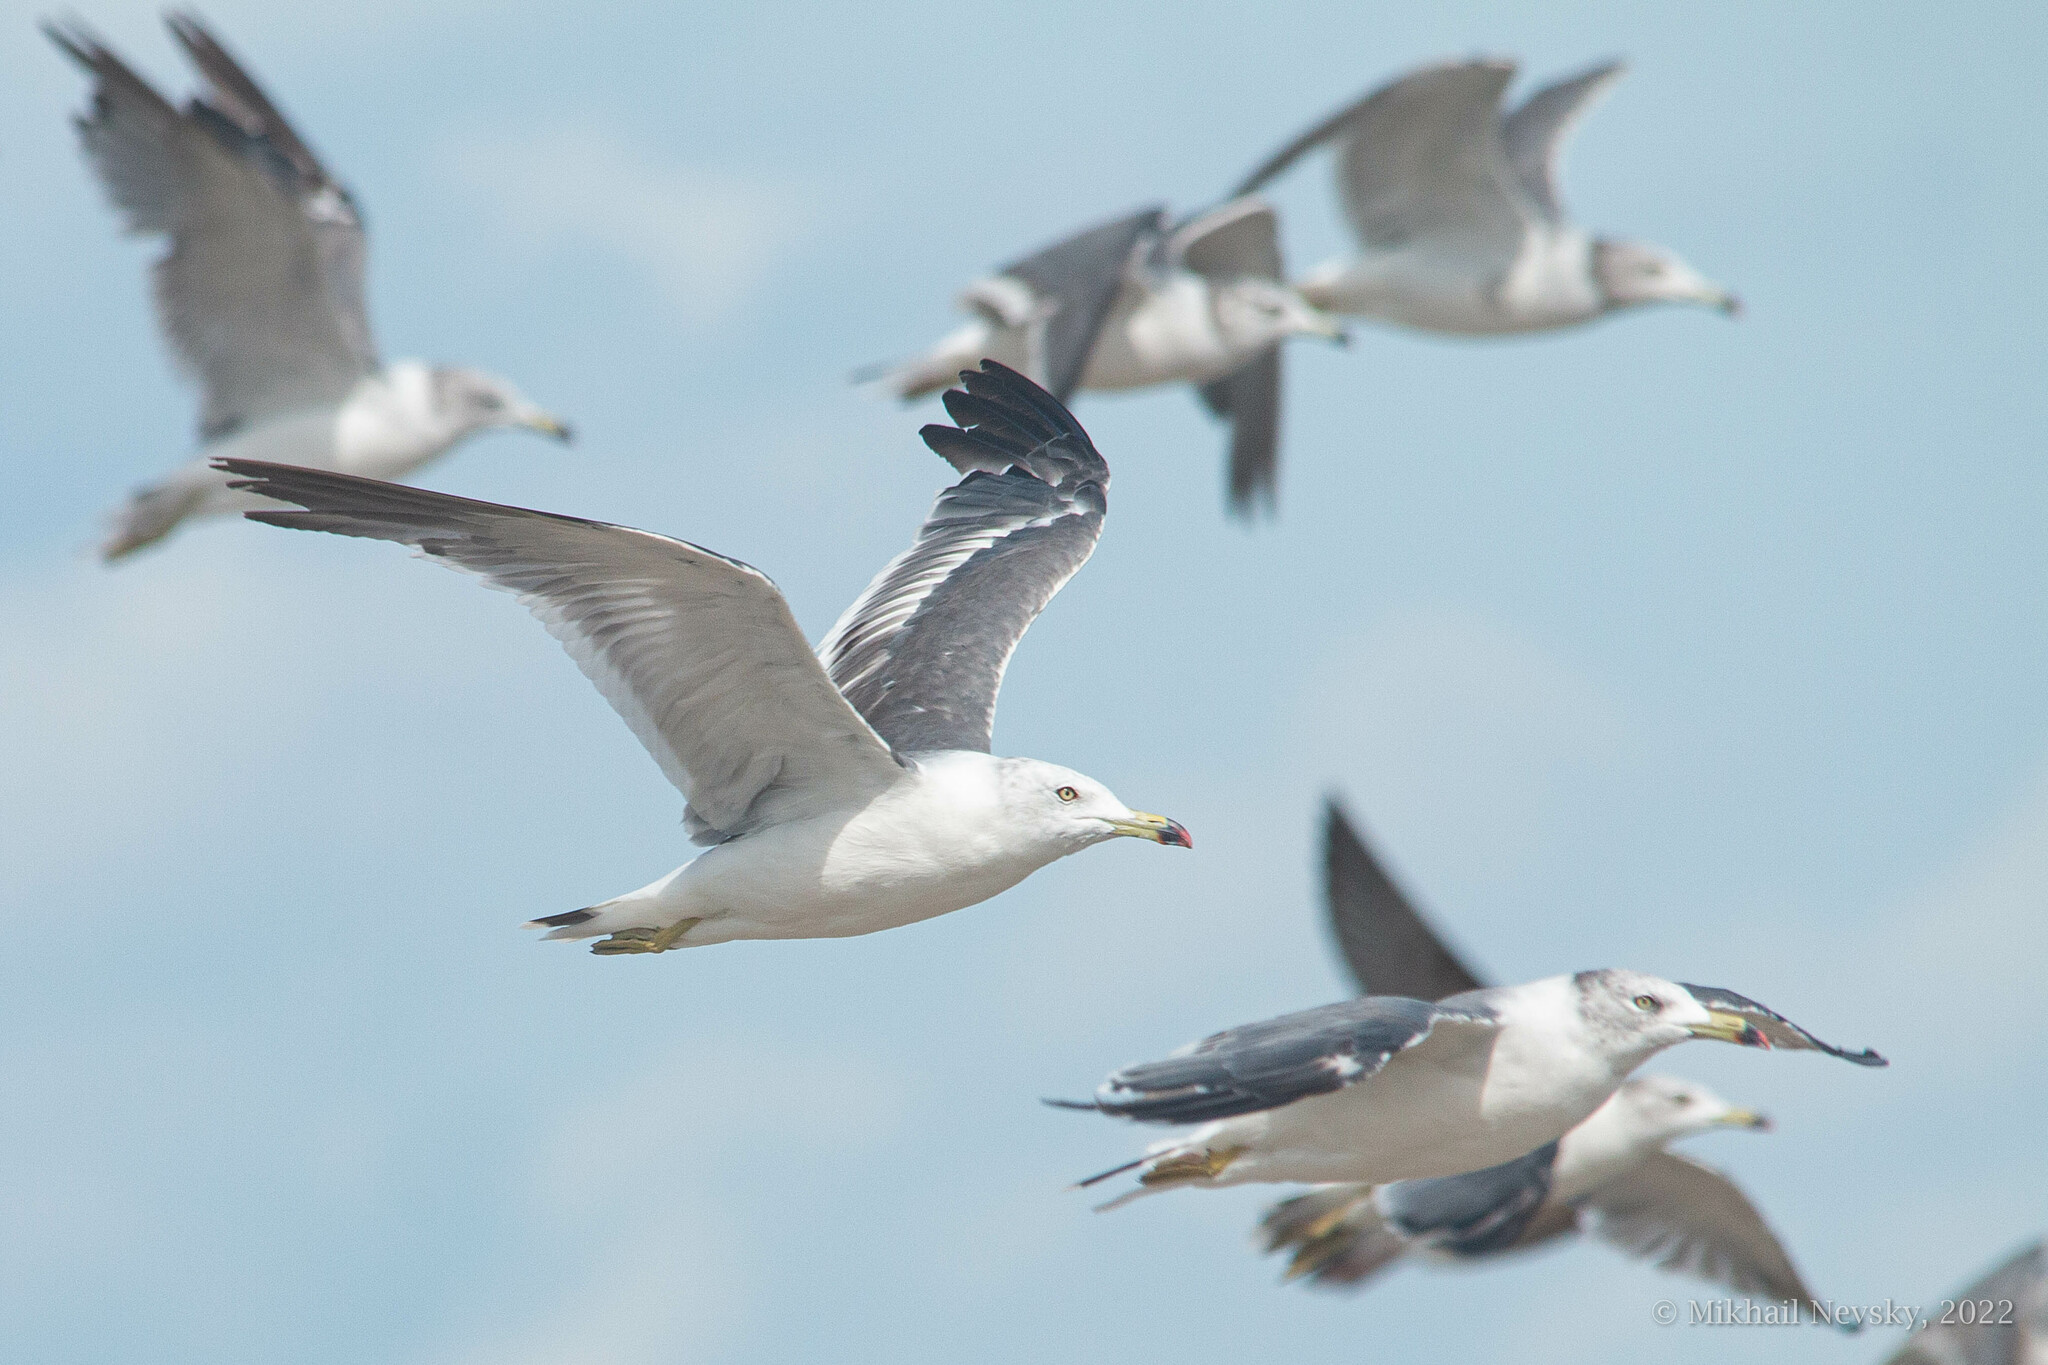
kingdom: Animalia
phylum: Chordata
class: Aves
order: Charadriiformes
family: Laridae
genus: Larus
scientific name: Larus crassirostris
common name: Black-tailed gull
